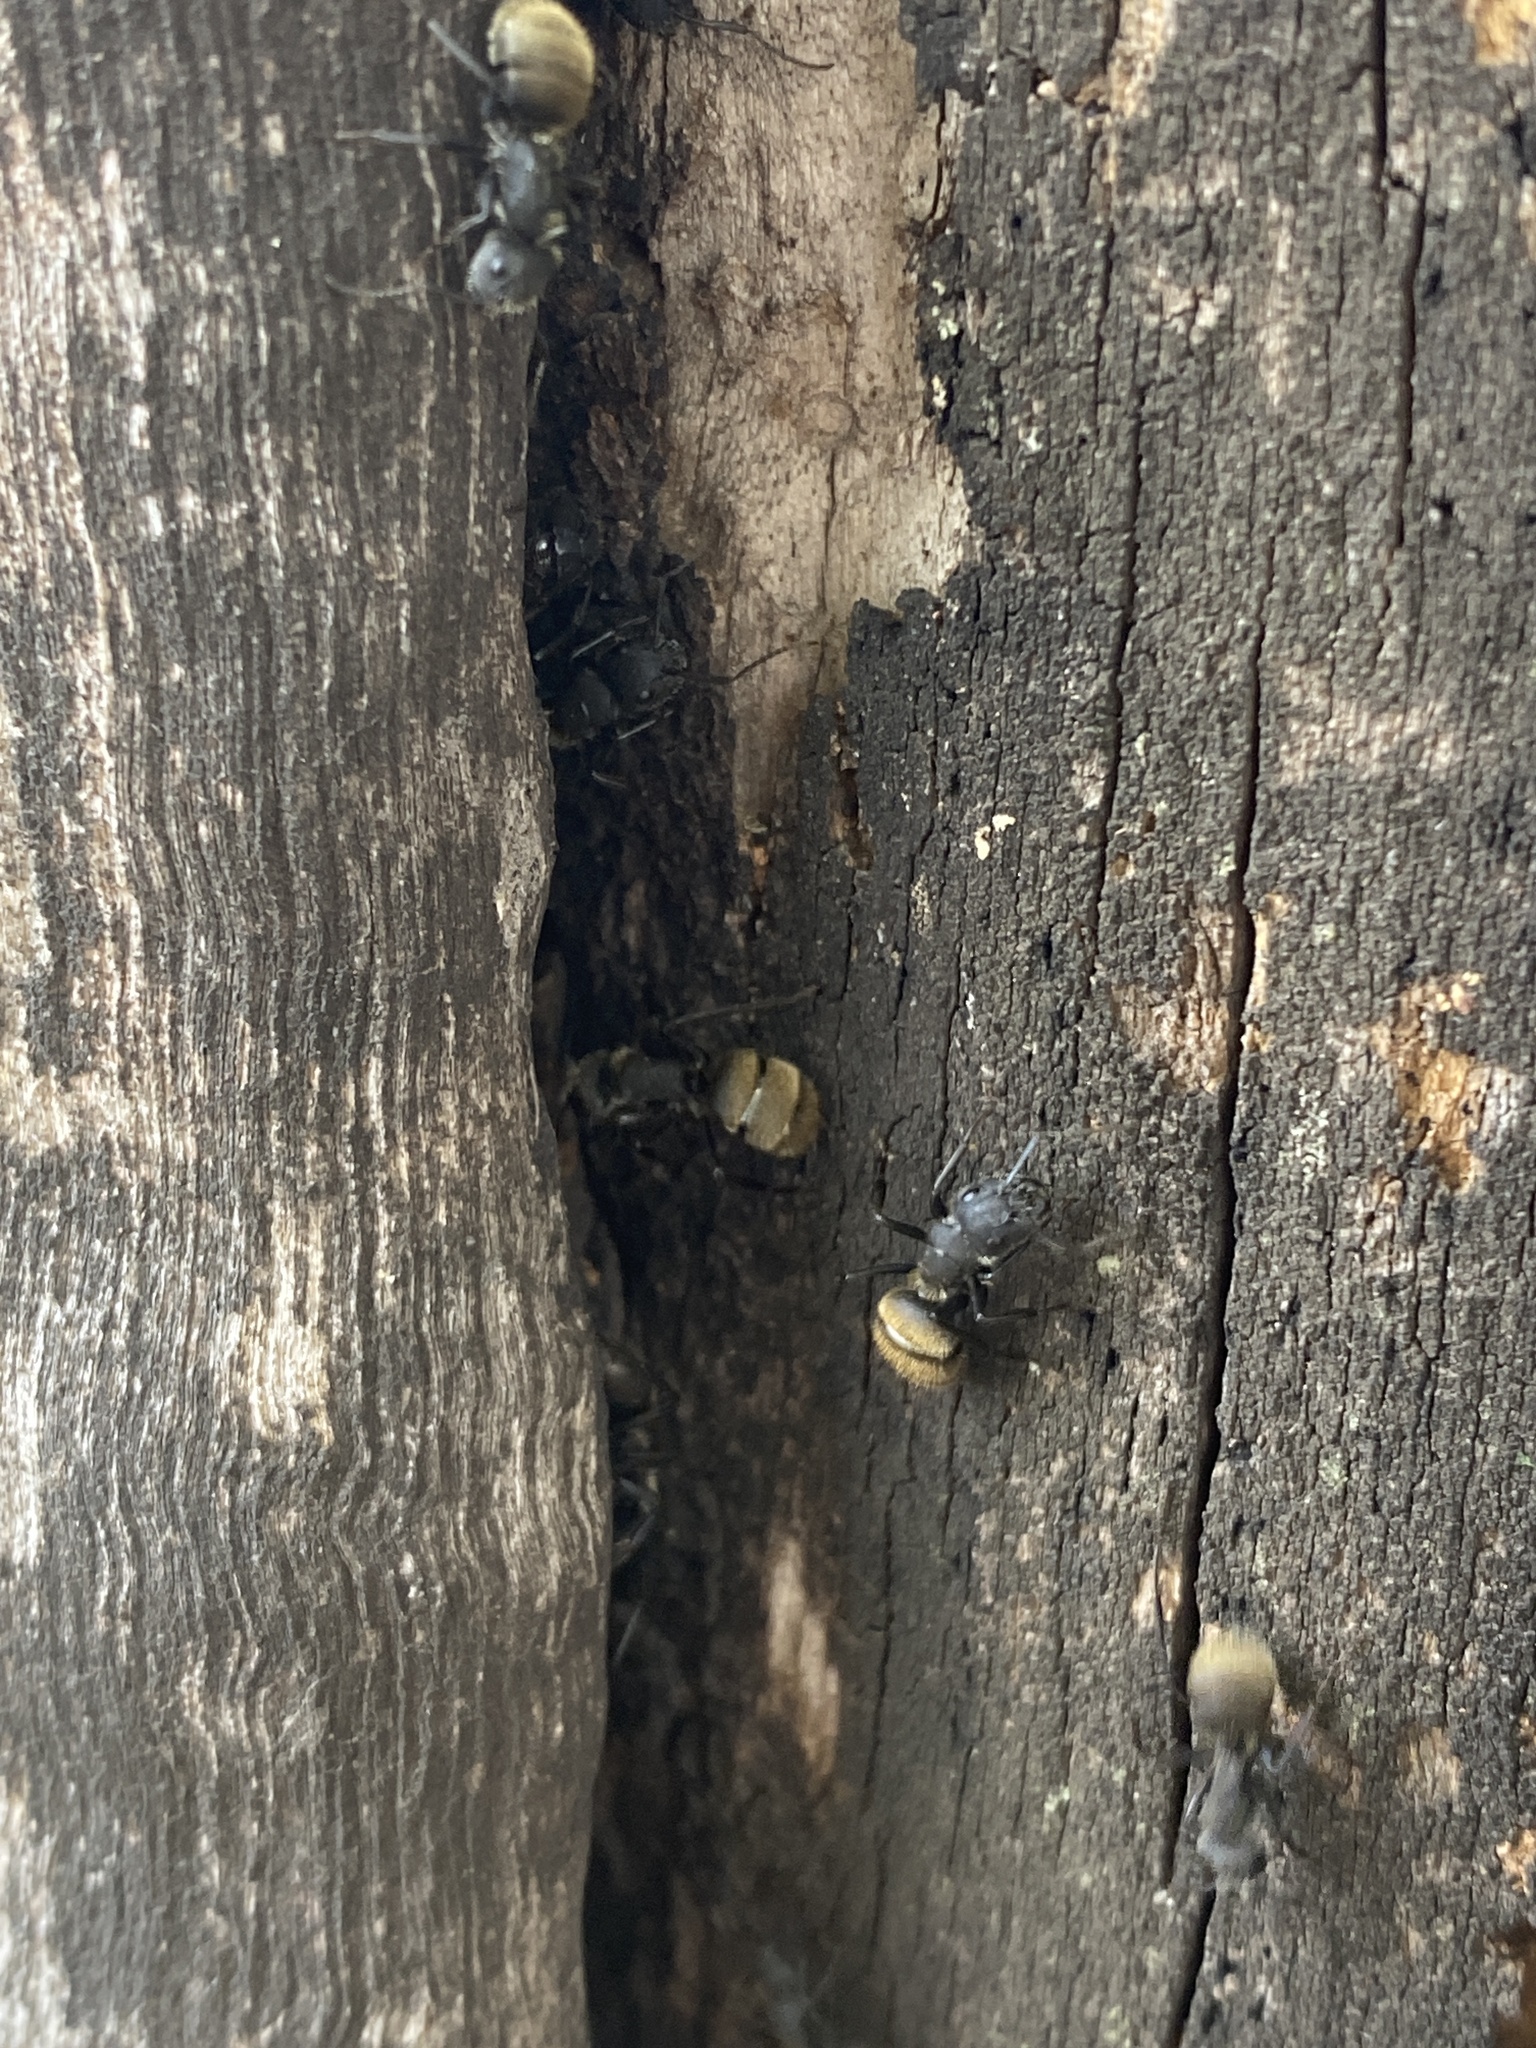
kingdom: Animalia
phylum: Arthropoda
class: Insecta
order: Hymenoptera
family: Formicidae
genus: Camponotus
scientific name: Camponotus mus
